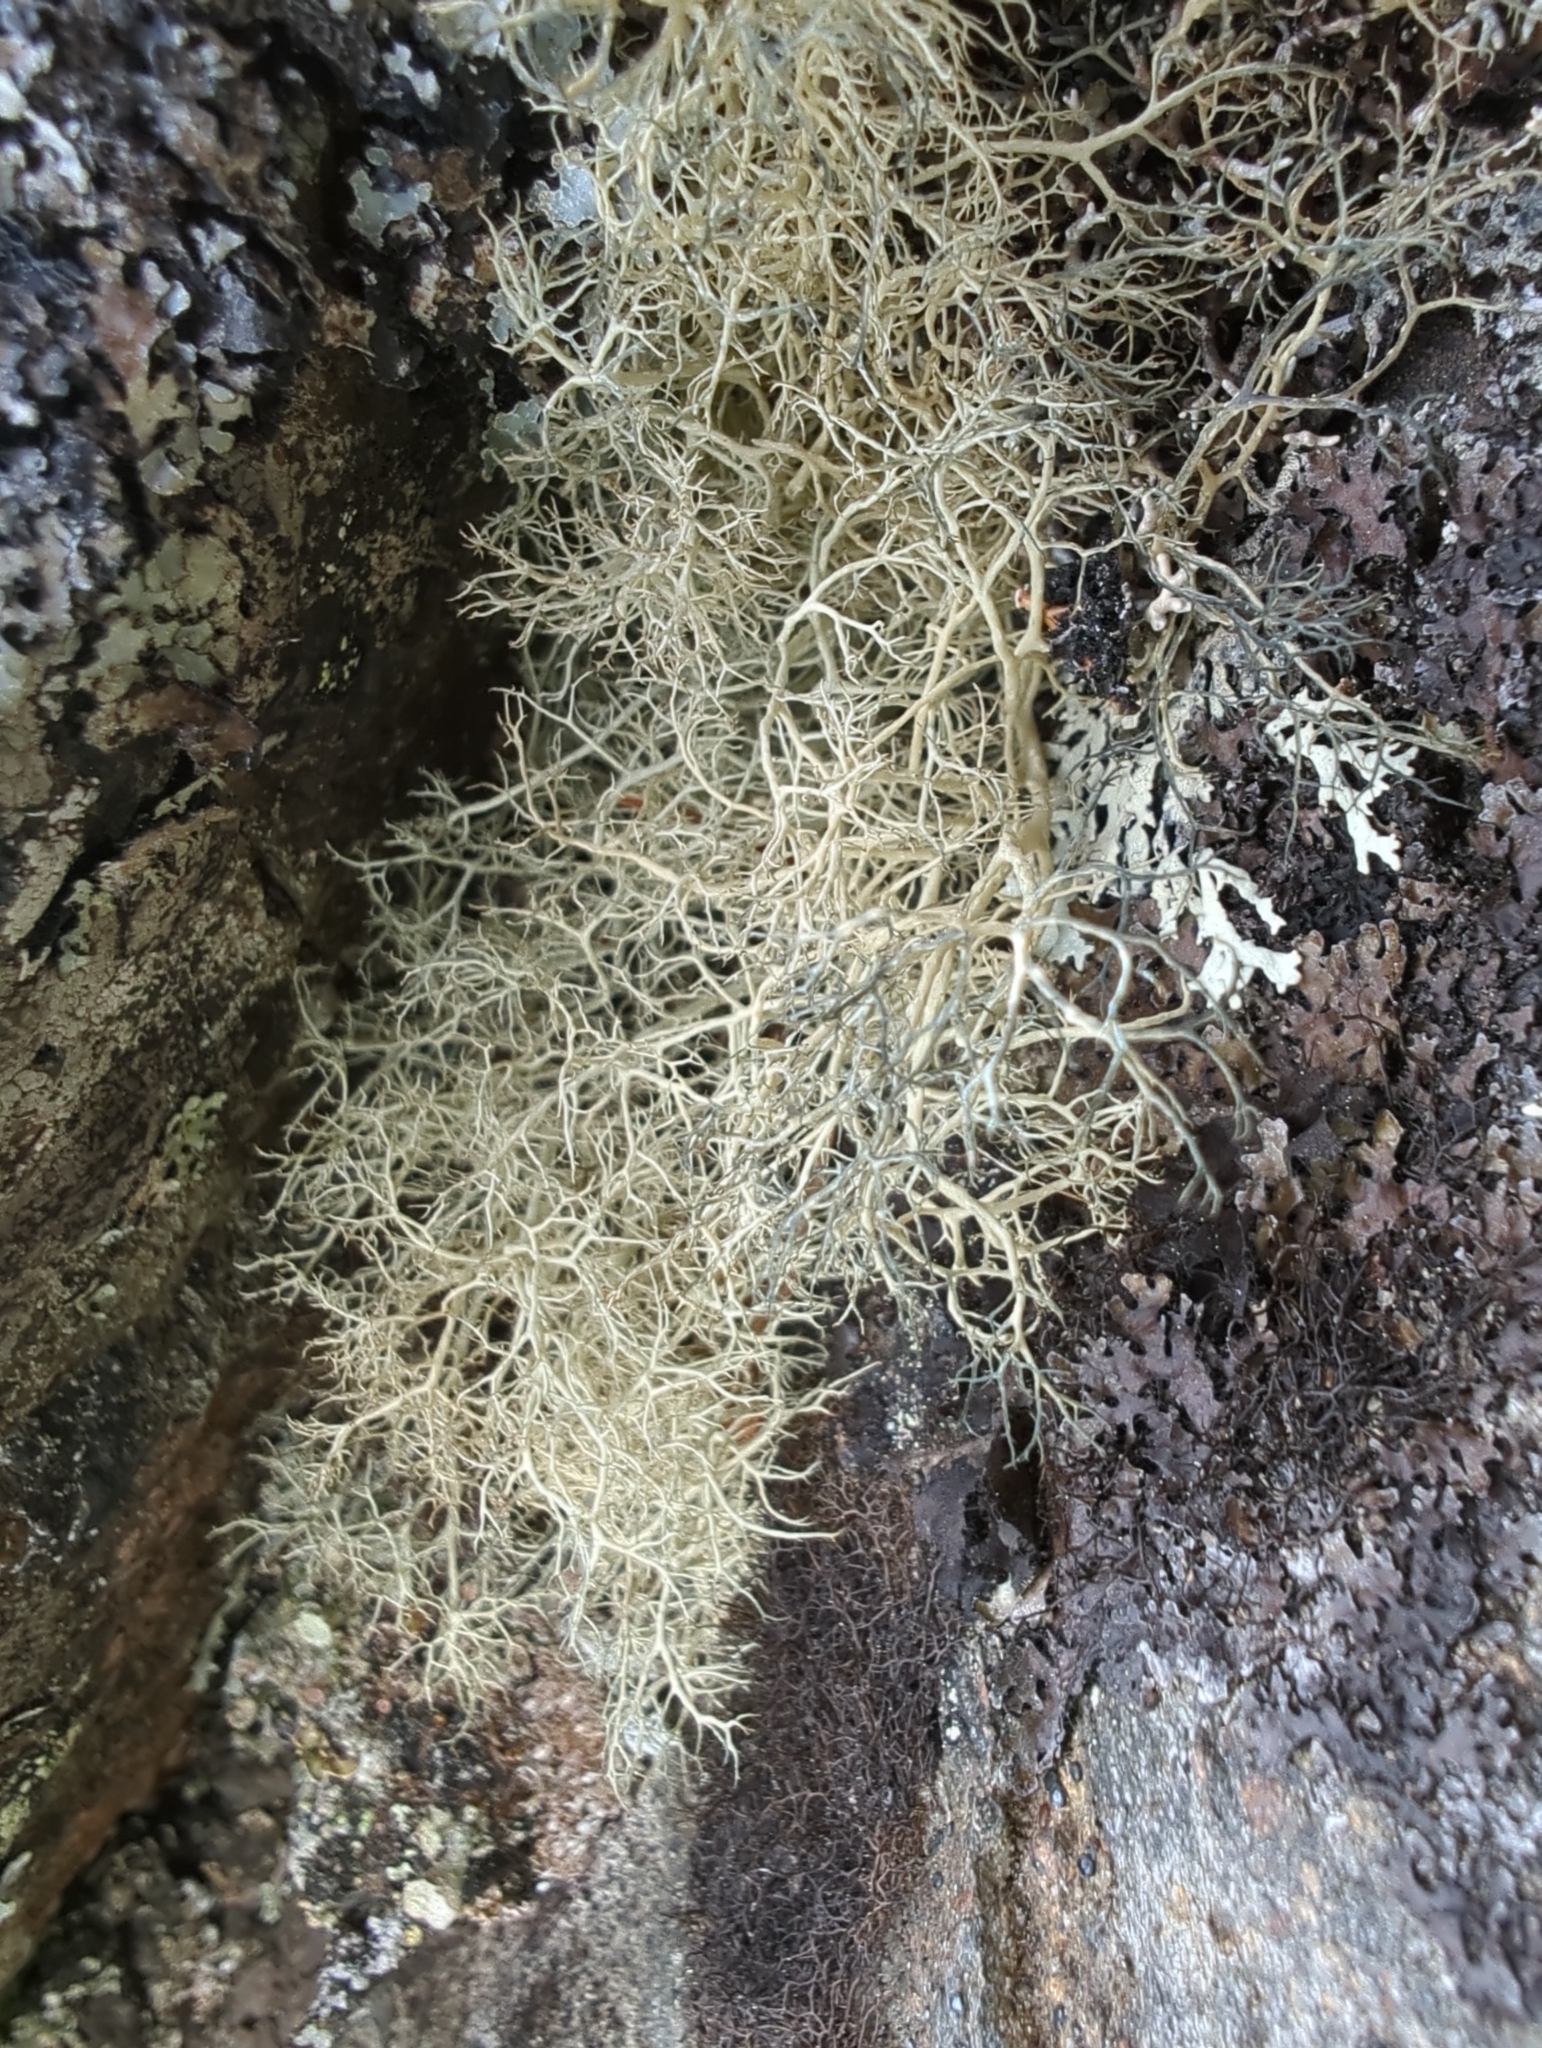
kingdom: Fungi
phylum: Ascomycota
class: Lecanoromycetes
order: Lecanorales
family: Parmeliaceae
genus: Alectoria
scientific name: Alectoria ochroleuca
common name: Alpine sulphur-tresses
